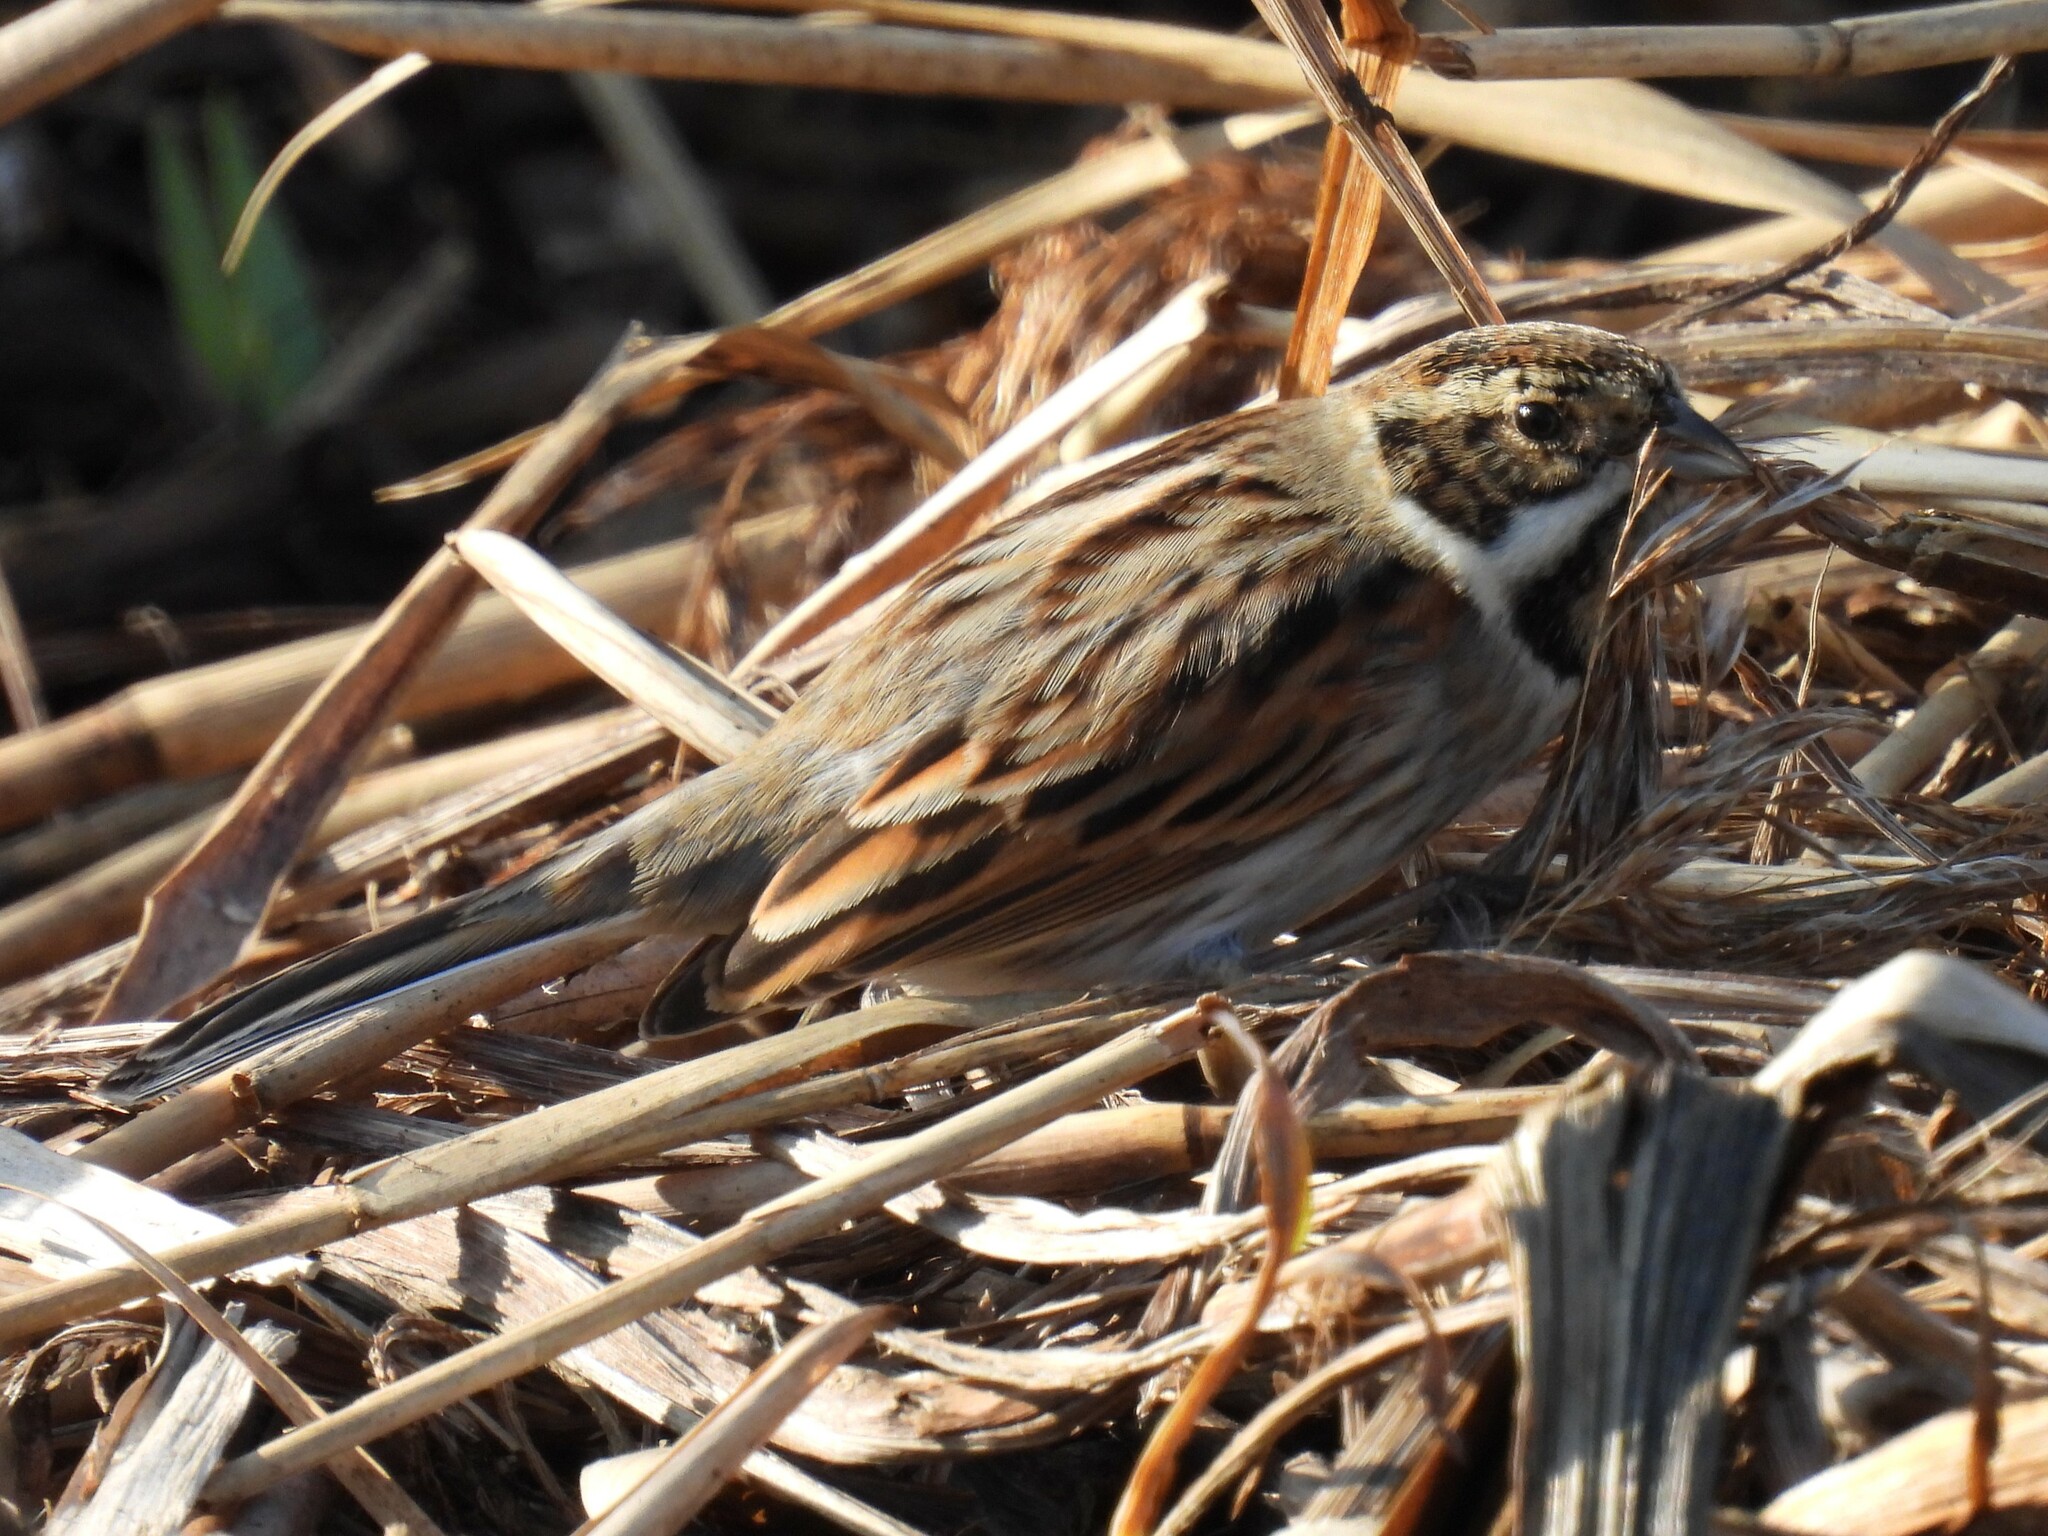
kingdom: Animalia
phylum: Chordata
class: Aves
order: Passeriformes
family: Emberizidae
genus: Emberiza
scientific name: Emberiza schoeniclus
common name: Reed bunting
